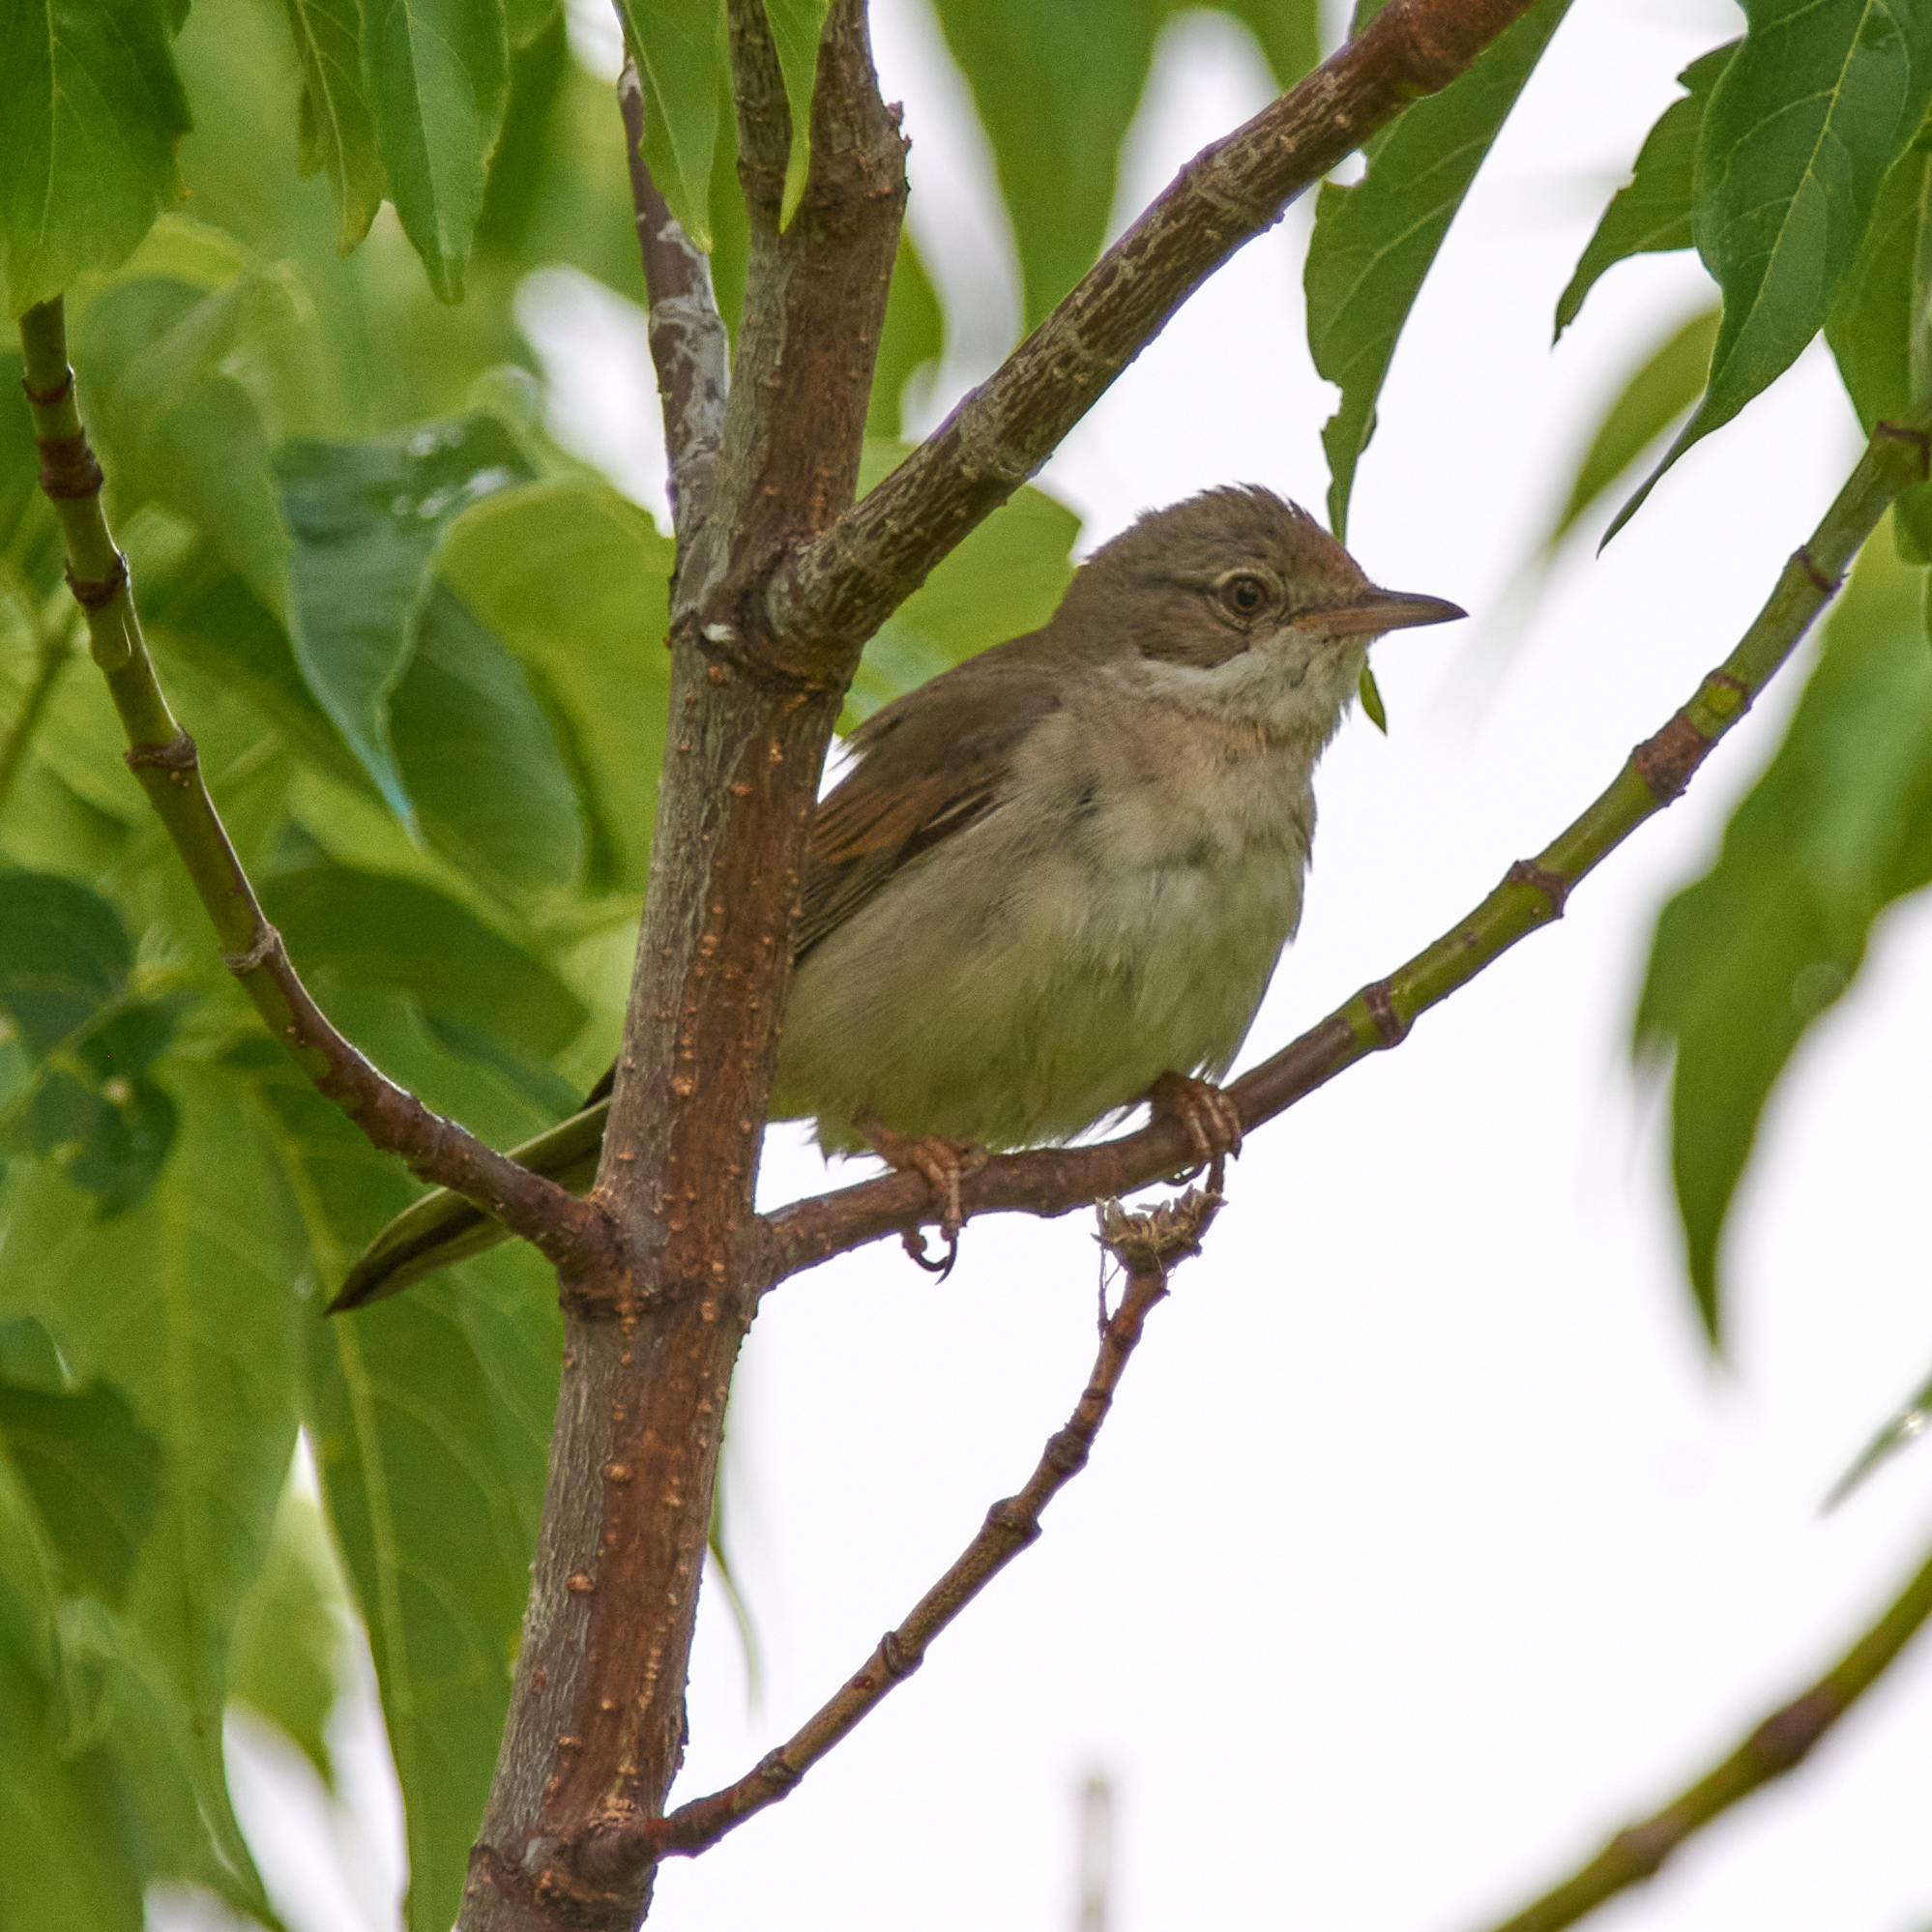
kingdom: Animalia
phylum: Chordata
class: Aves
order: Passeriformes
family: Sylviidae
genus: Sylvia
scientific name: Sylvia communis
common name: Common whitethroat
